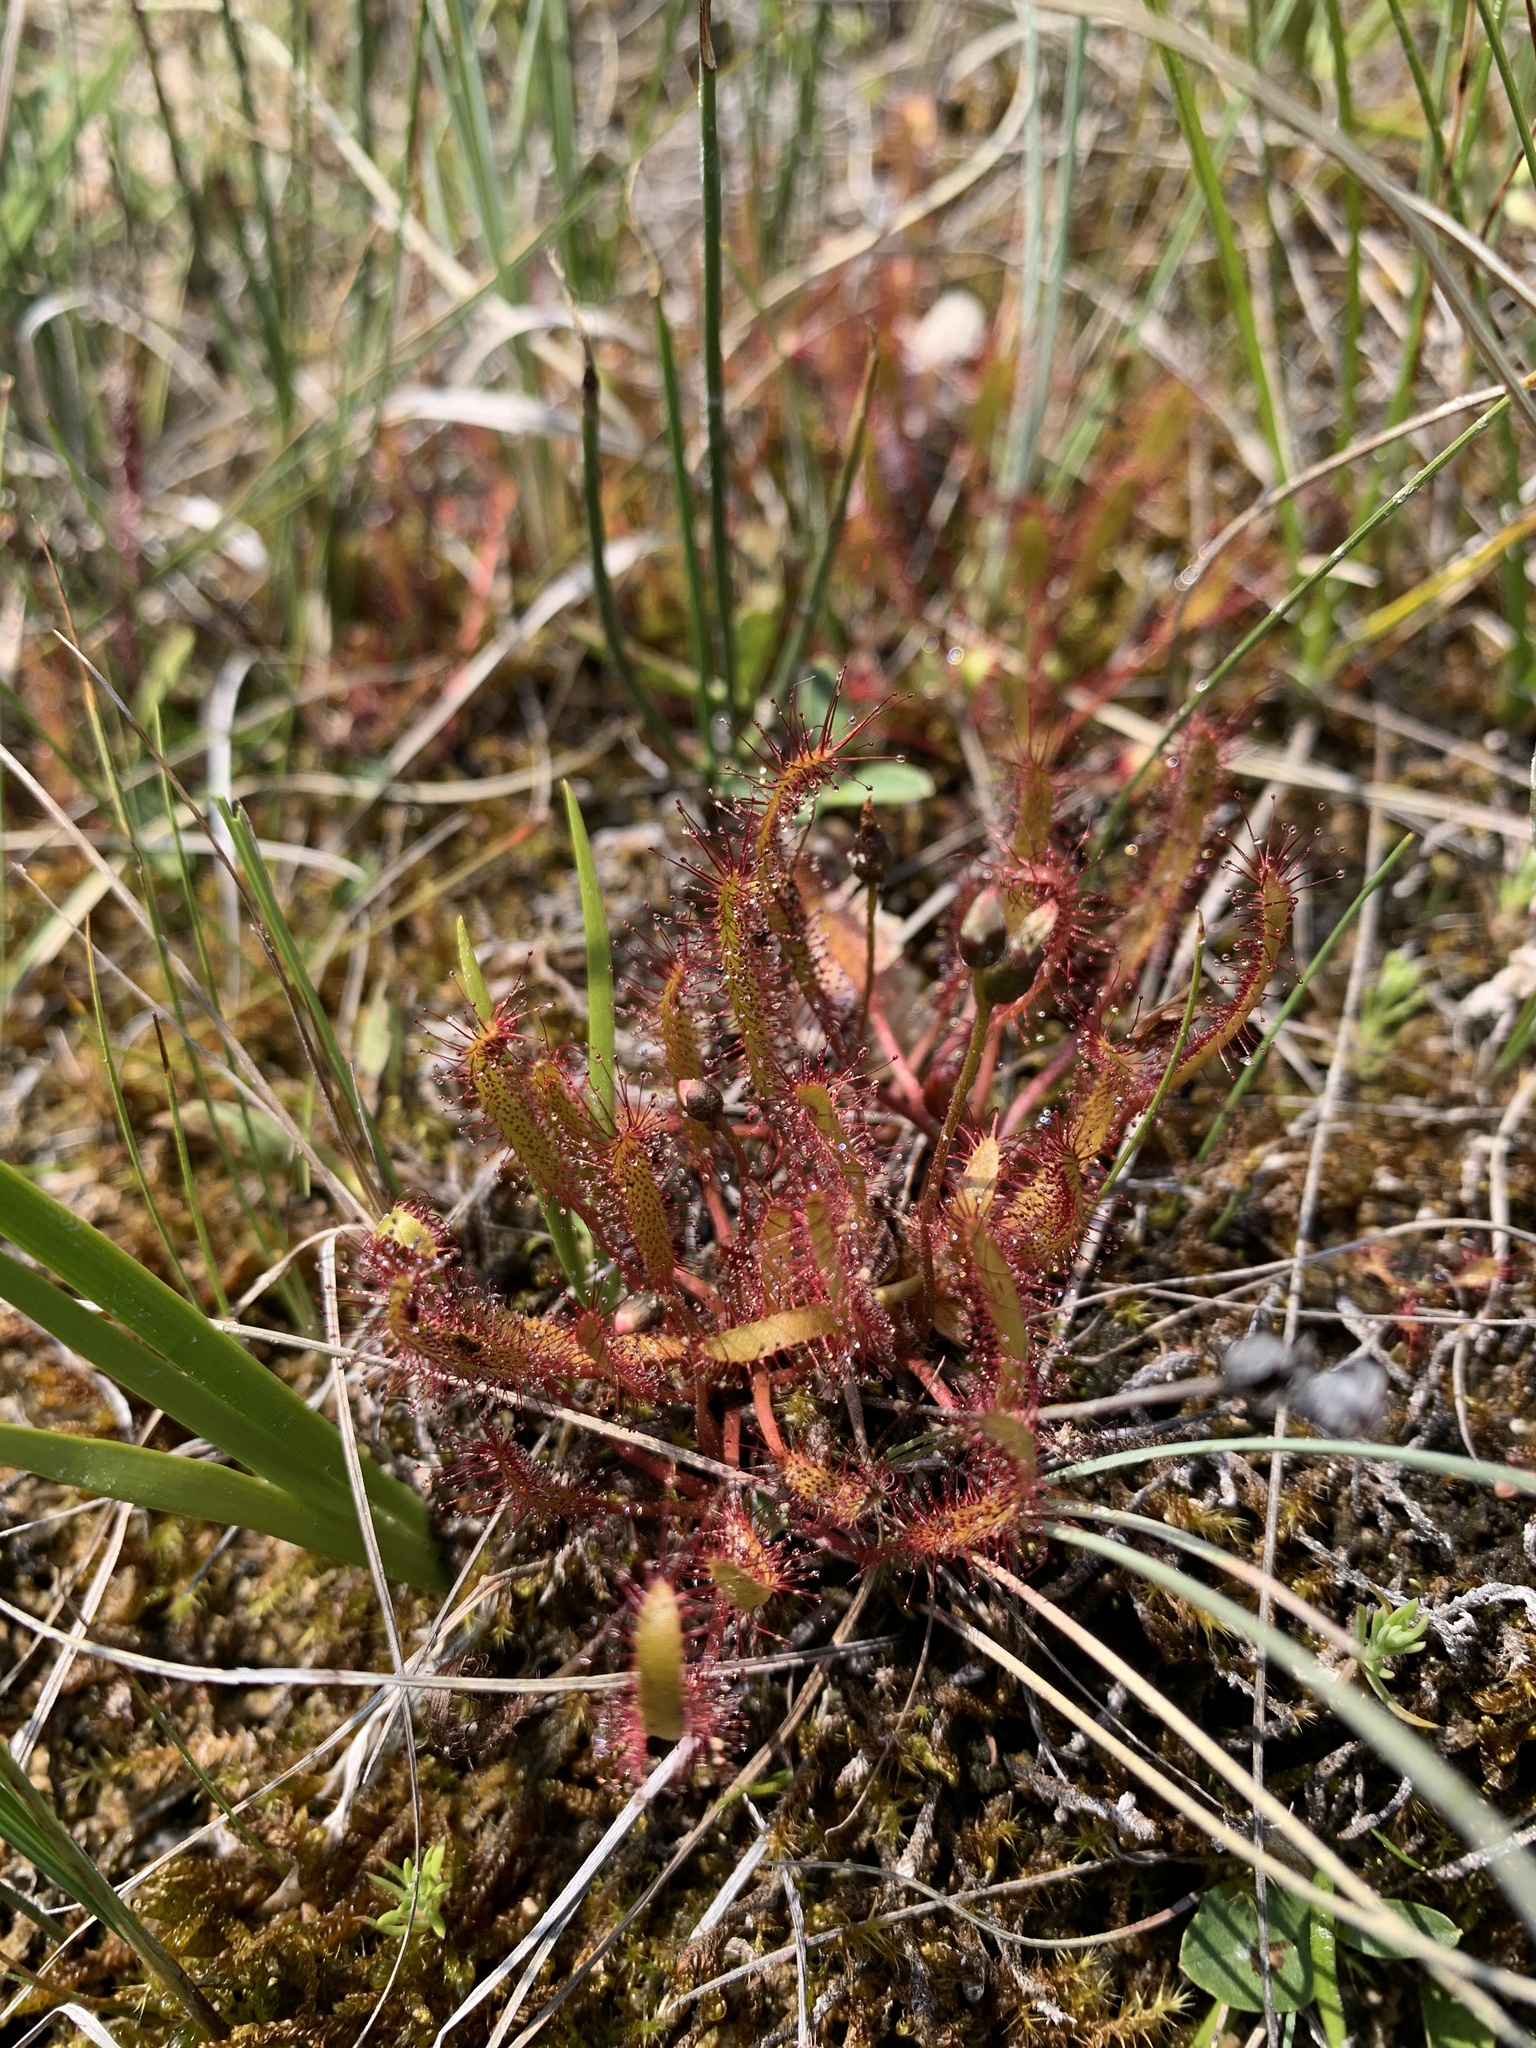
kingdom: Plantae
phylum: Tracheophyta
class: Magnoliopsida
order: Caryophyllales
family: Droseraceae
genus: Drosera
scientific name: Drosera linearis
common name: Linear-leaved sundew
